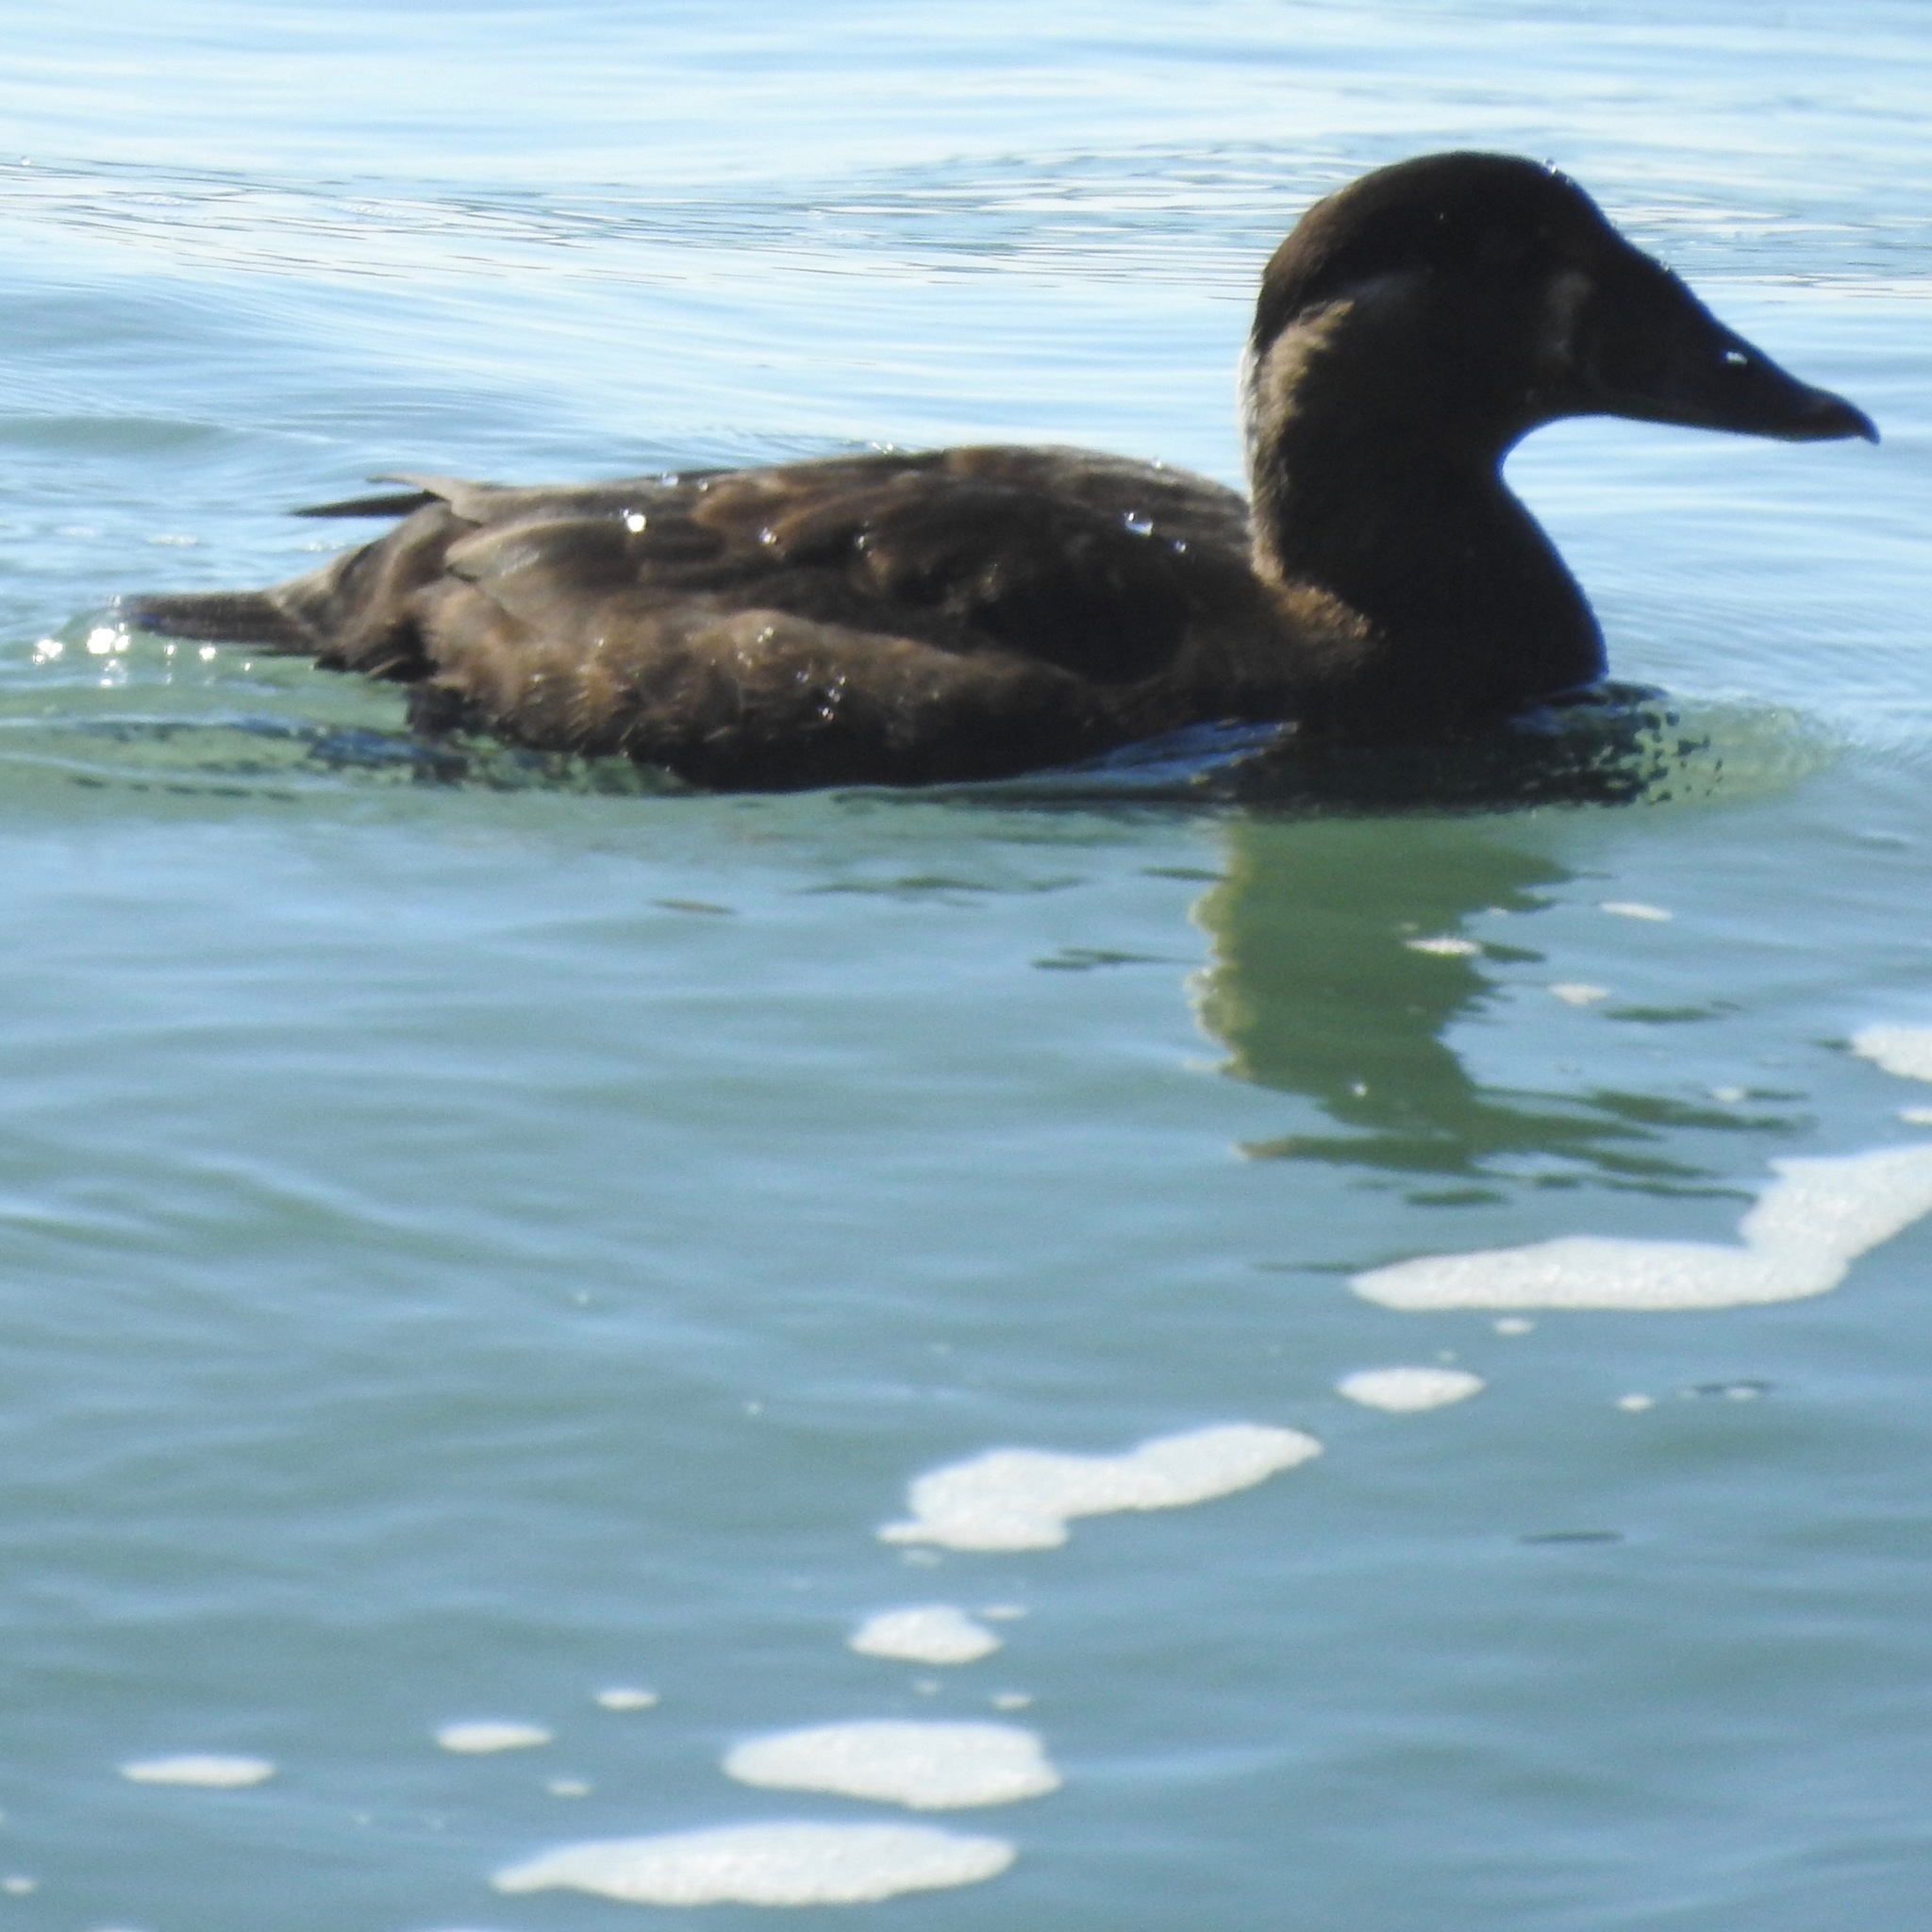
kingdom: Animalia
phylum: Chordata
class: Aves
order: Anseriformes
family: Anatidae
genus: Melanitta
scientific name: Melanitta perspicillata
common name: Surf scoter
